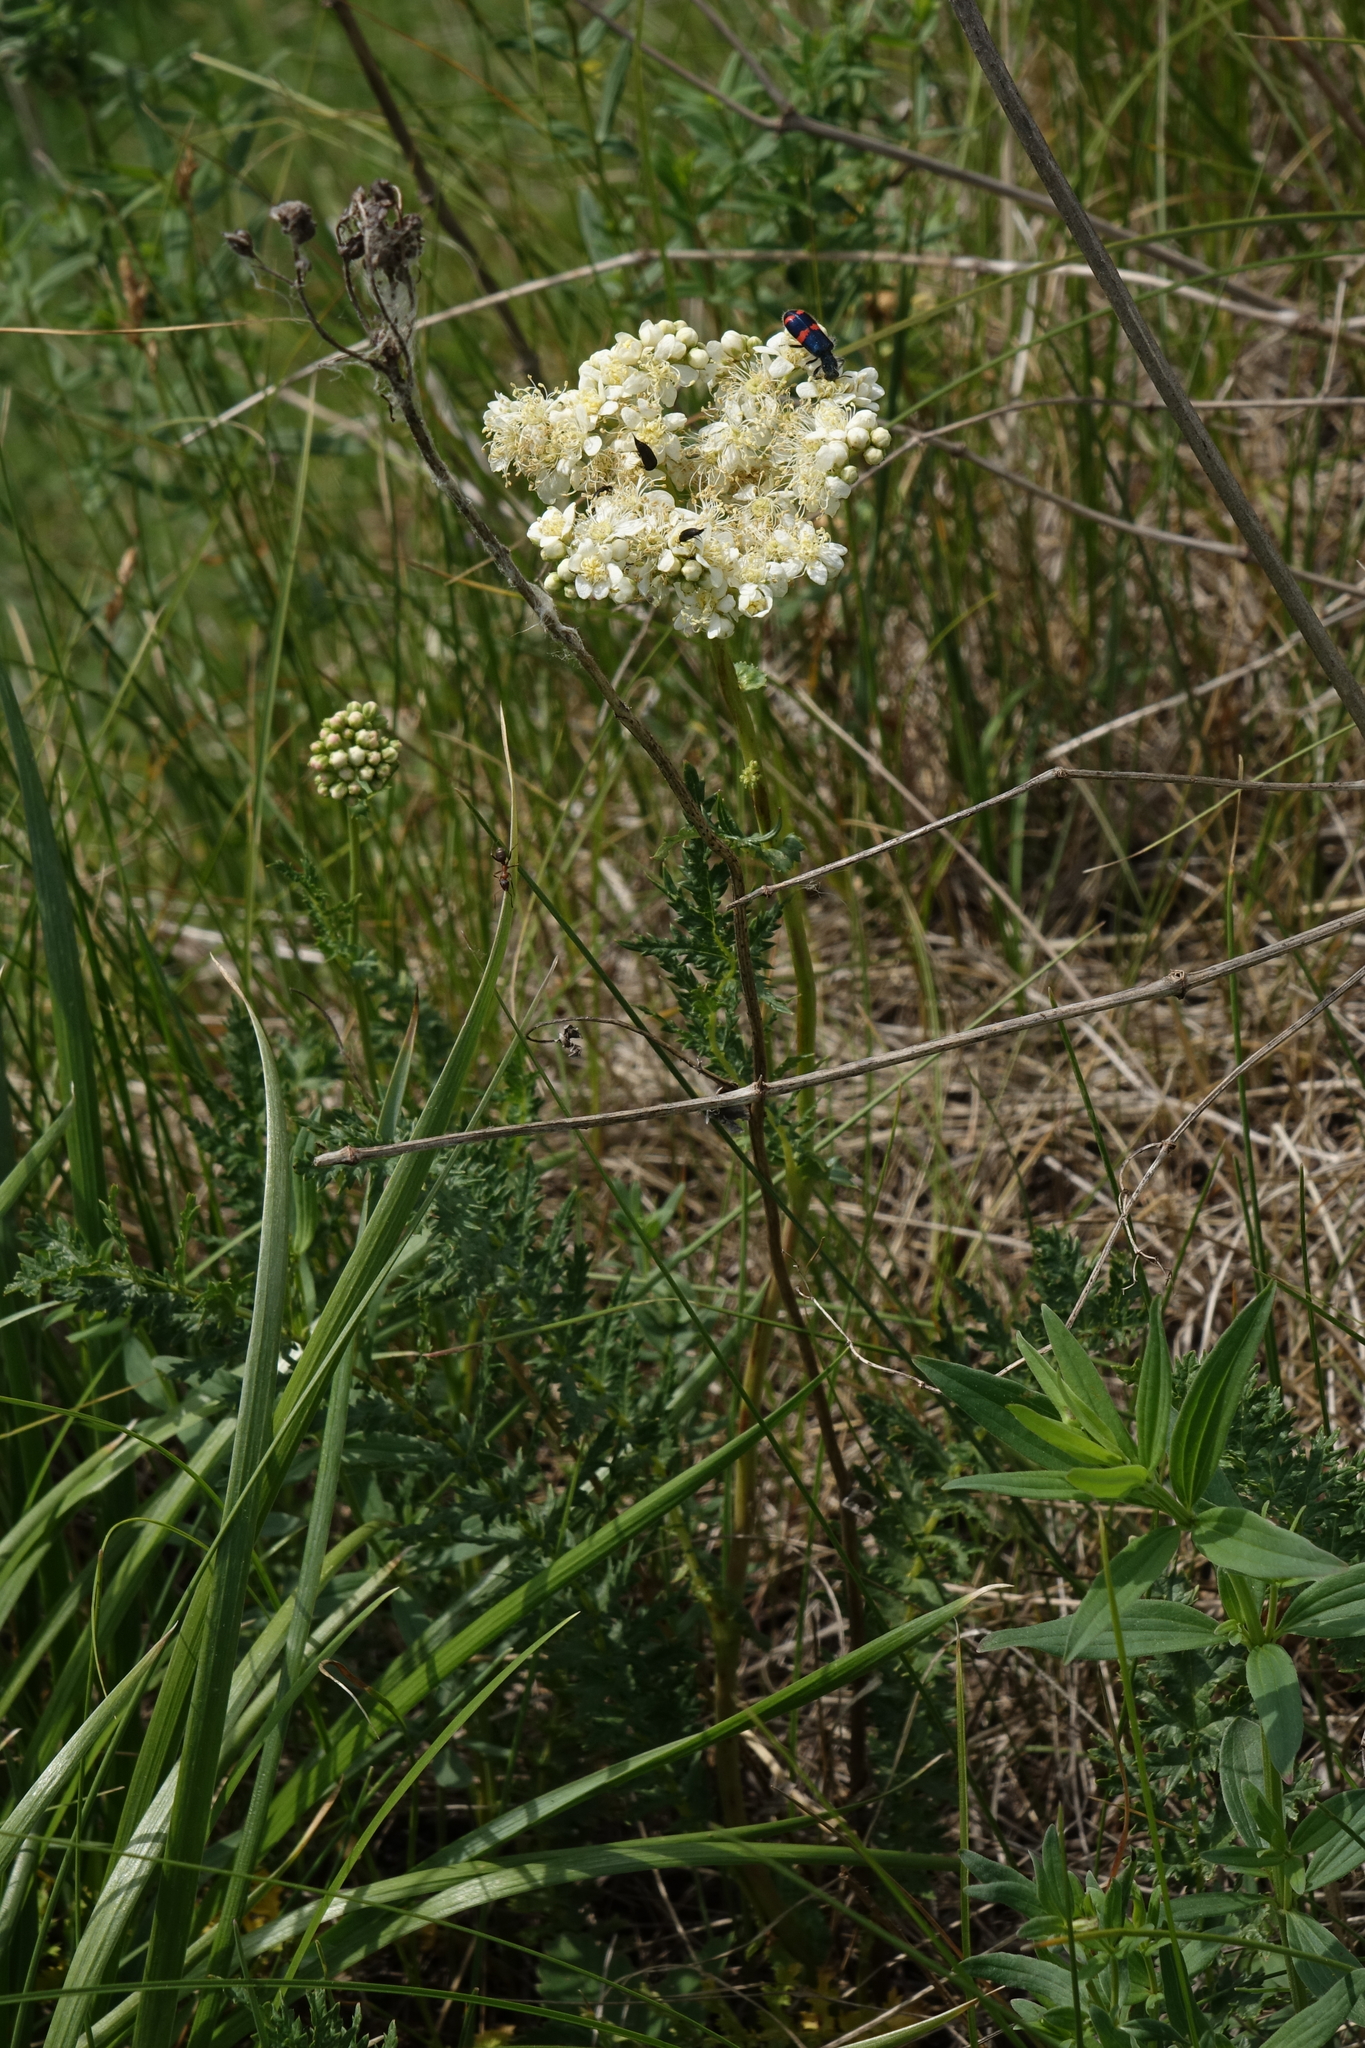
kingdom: Plantae
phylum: Tracheophyta
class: Magnoliopsida
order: Rosales
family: Rosaceae
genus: Filipendula
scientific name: Filipendula vulgaris
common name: Dropwort
